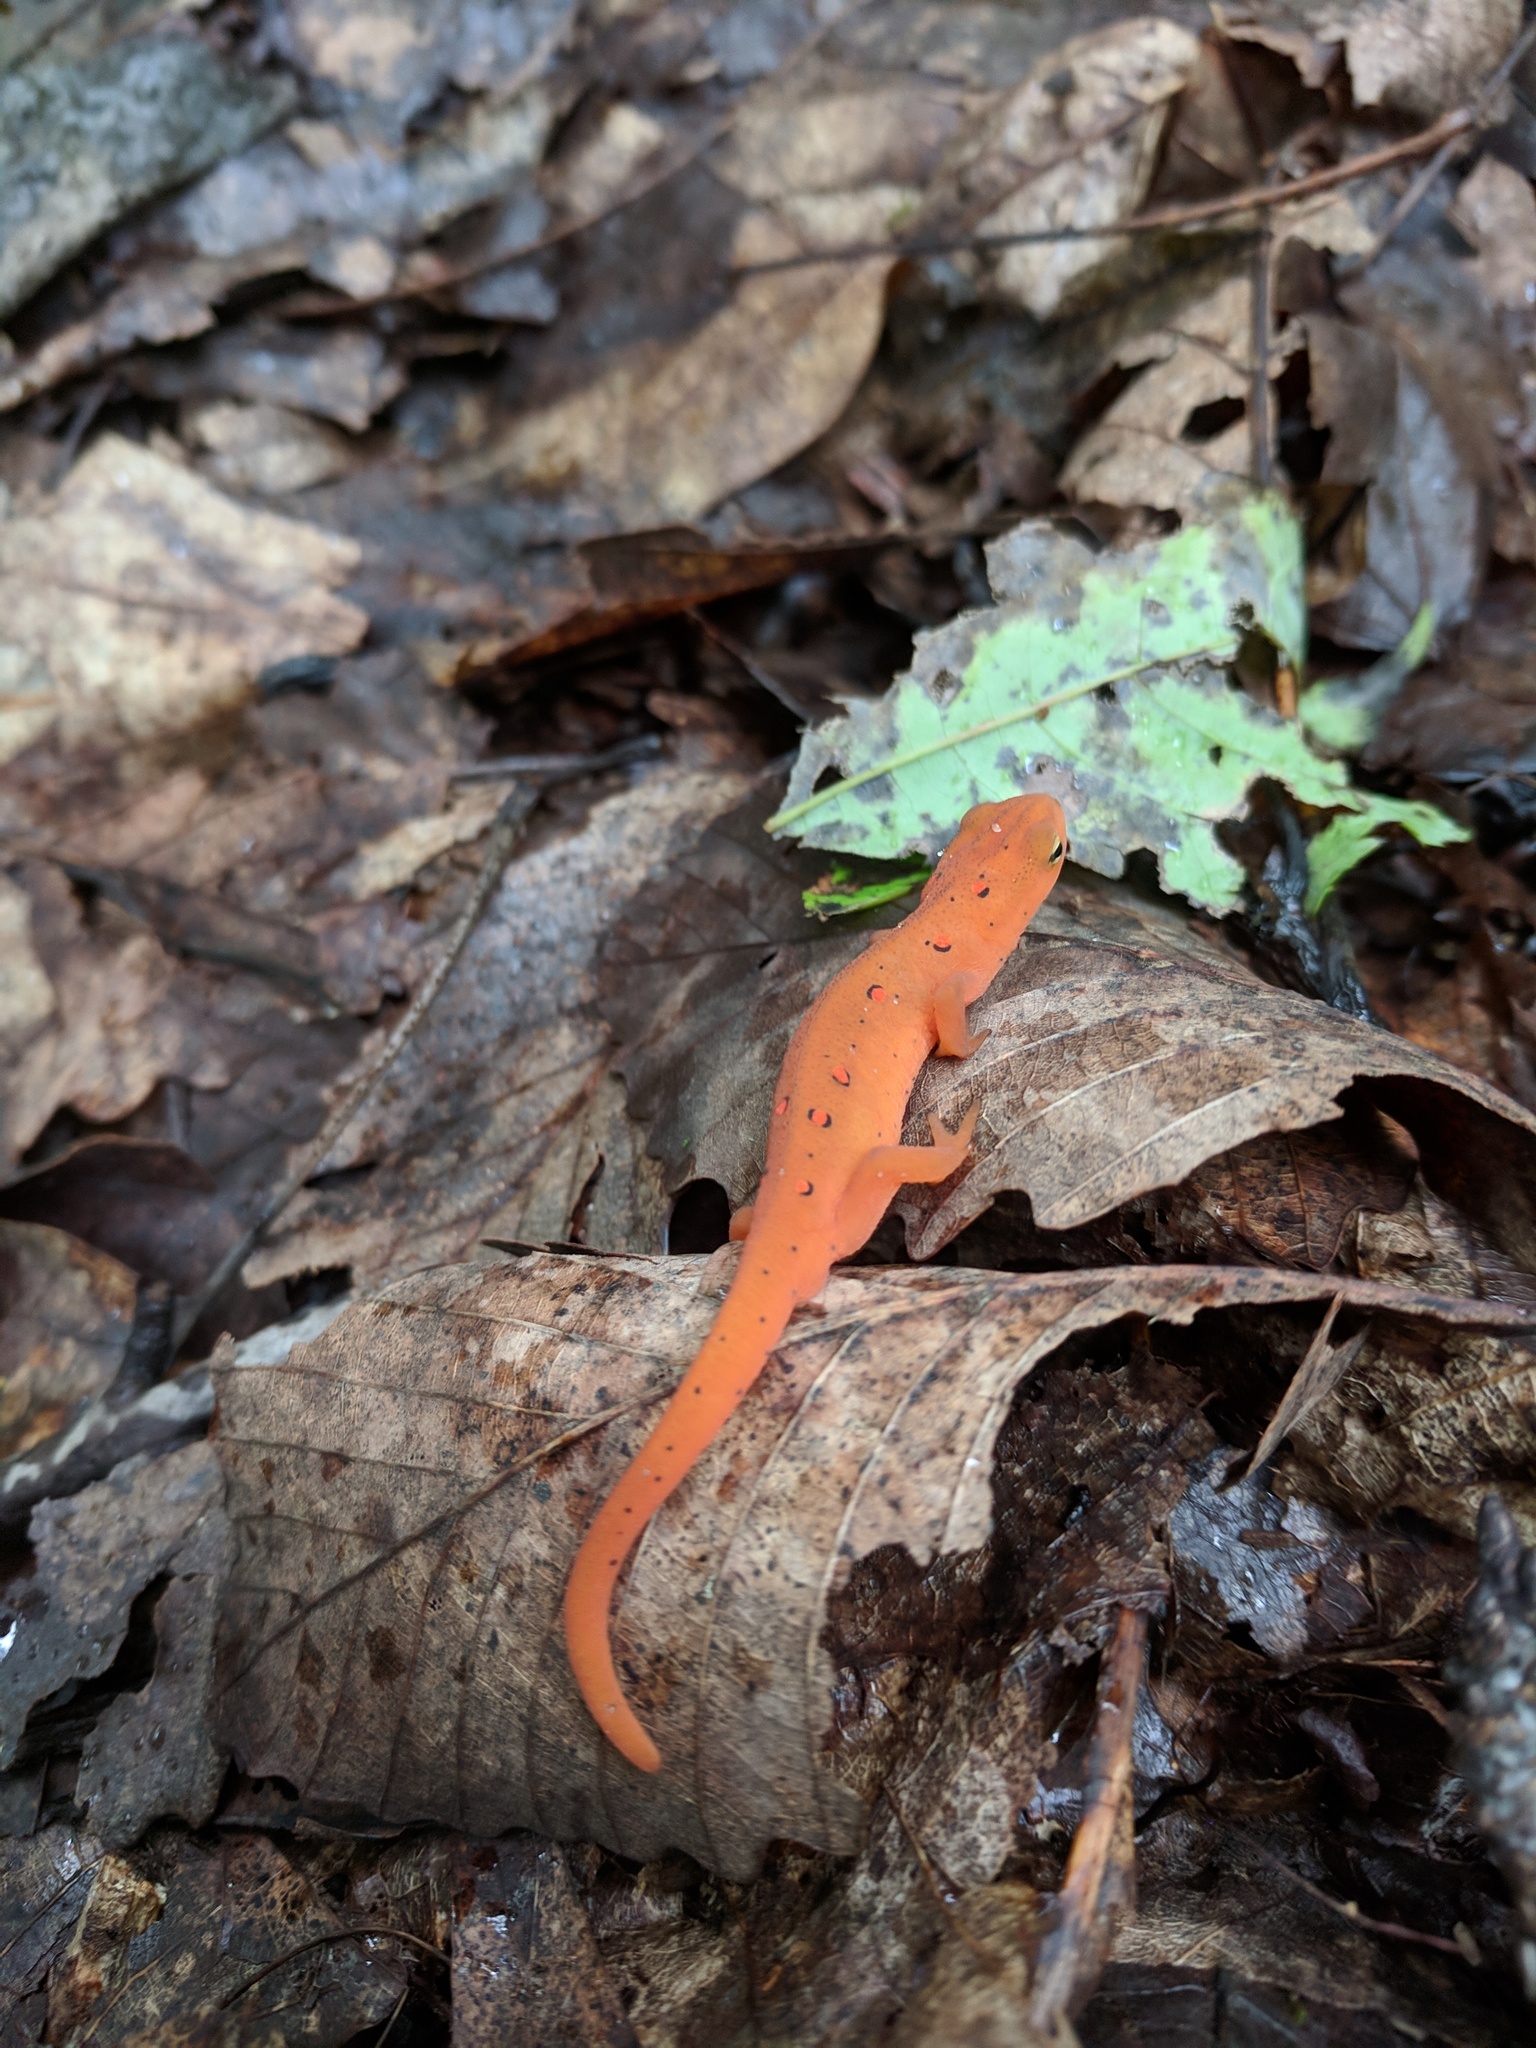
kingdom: Animalia
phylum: Chordata
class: Amphibia
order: Caudata
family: Salamandridae
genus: Notophthalmus
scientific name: Notophthalmus viridescens
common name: Eastern newt
